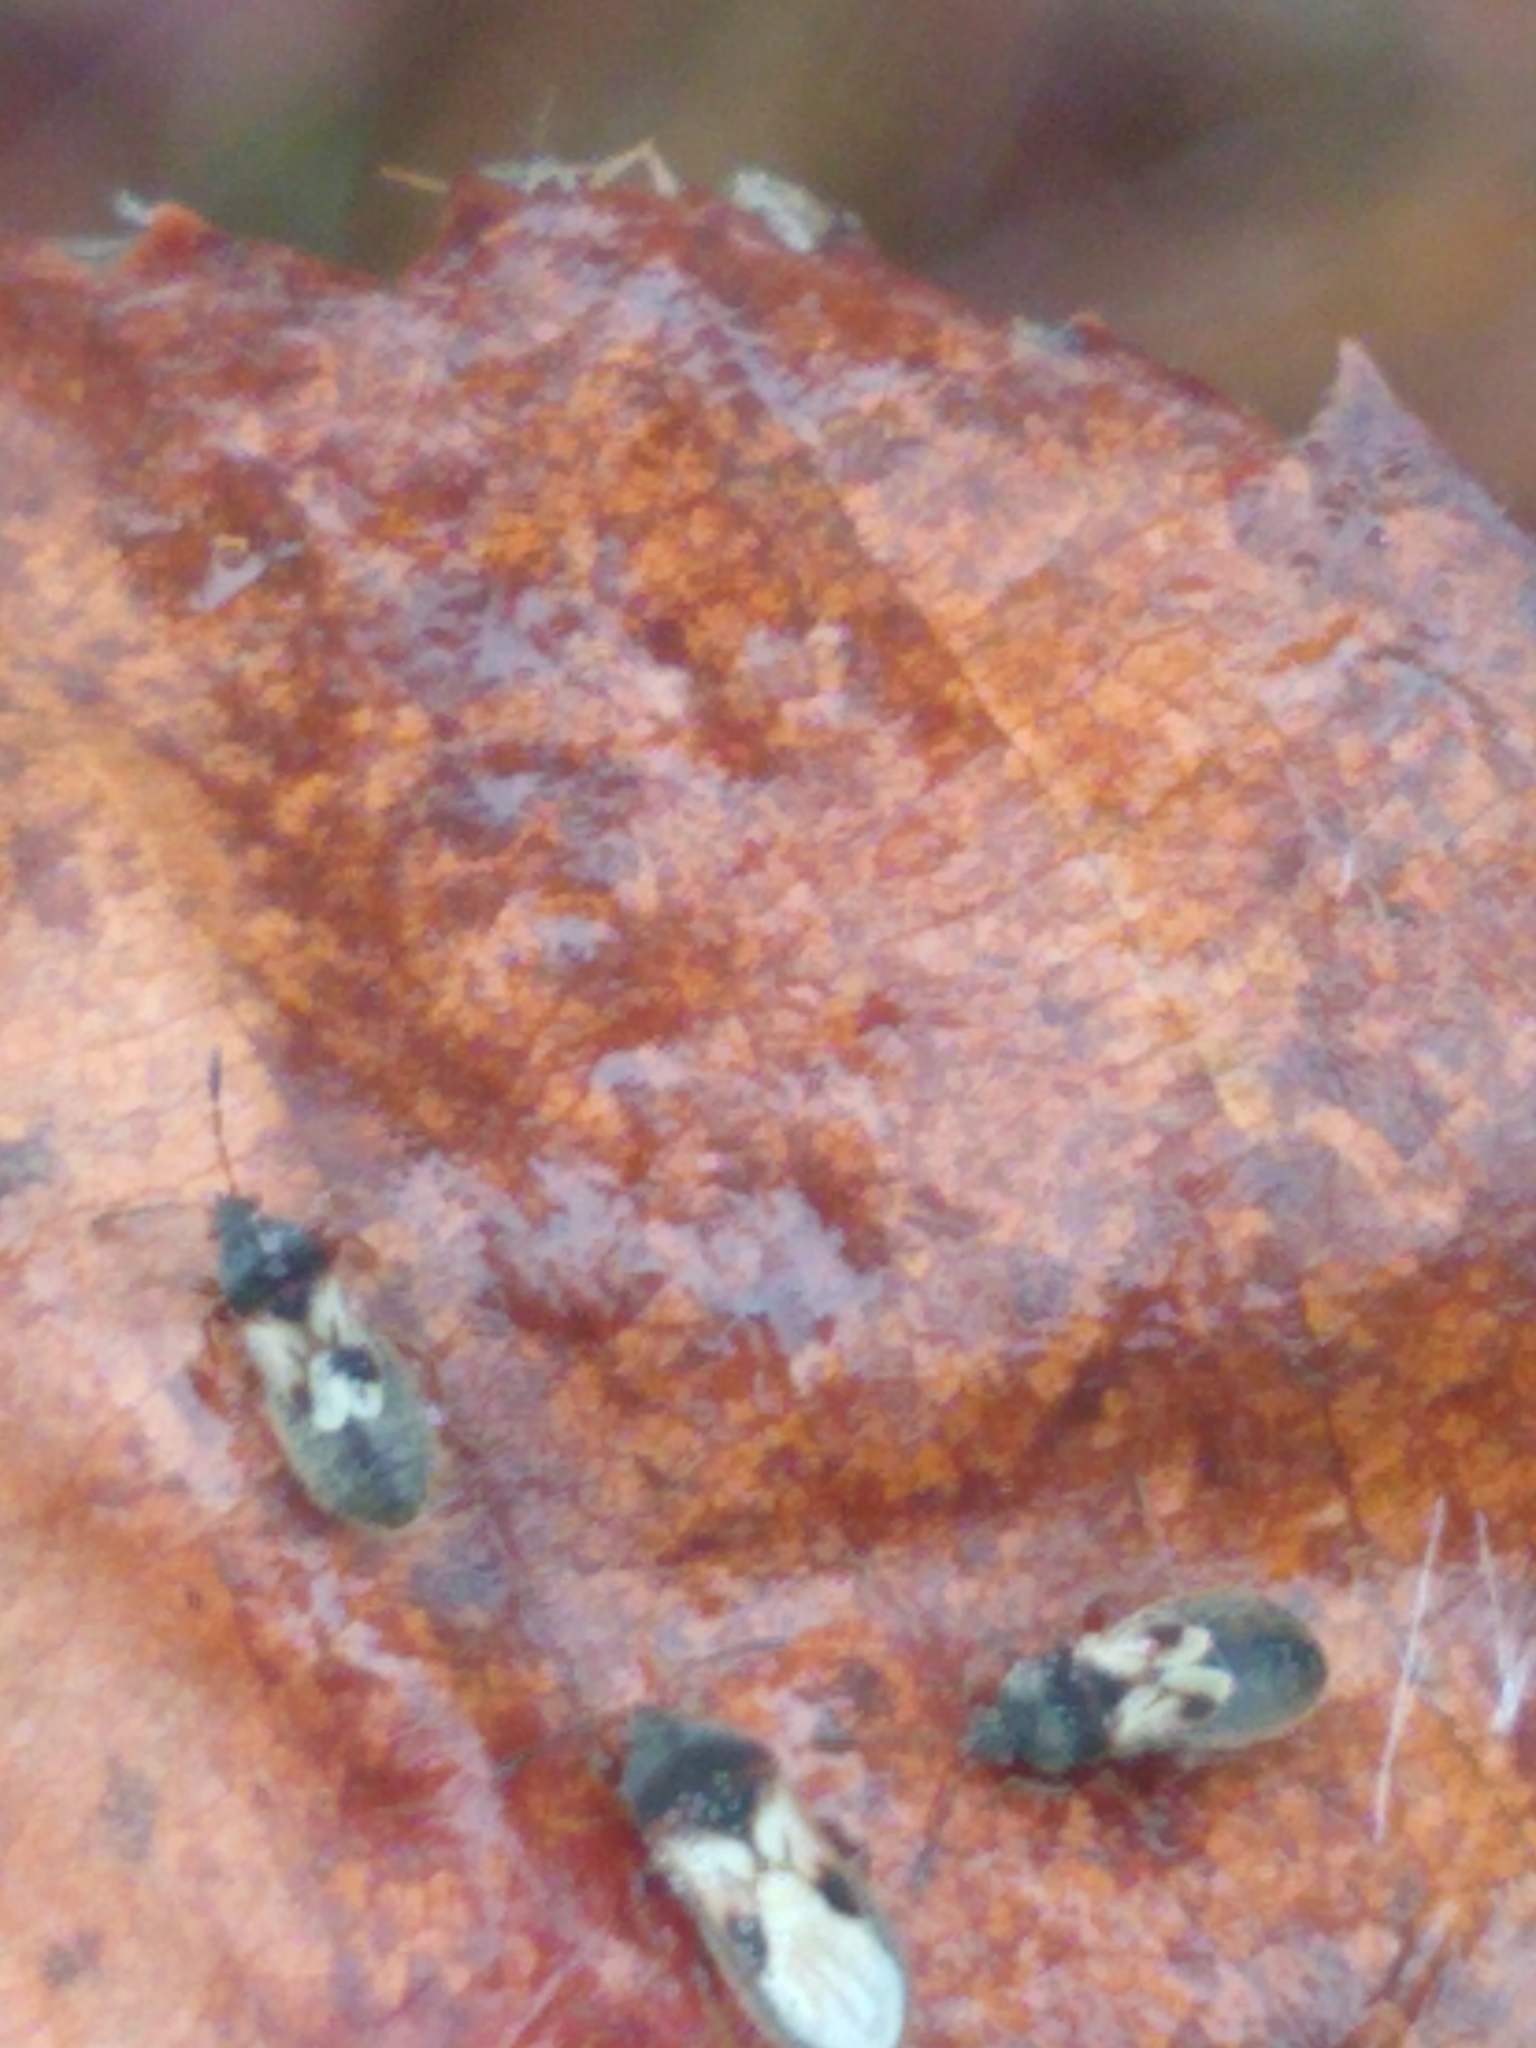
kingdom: Animalia
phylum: Arthropoda
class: Insecta
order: Hemiptera
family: Blissidae
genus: Blissus
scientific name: Blissus leucopterus
